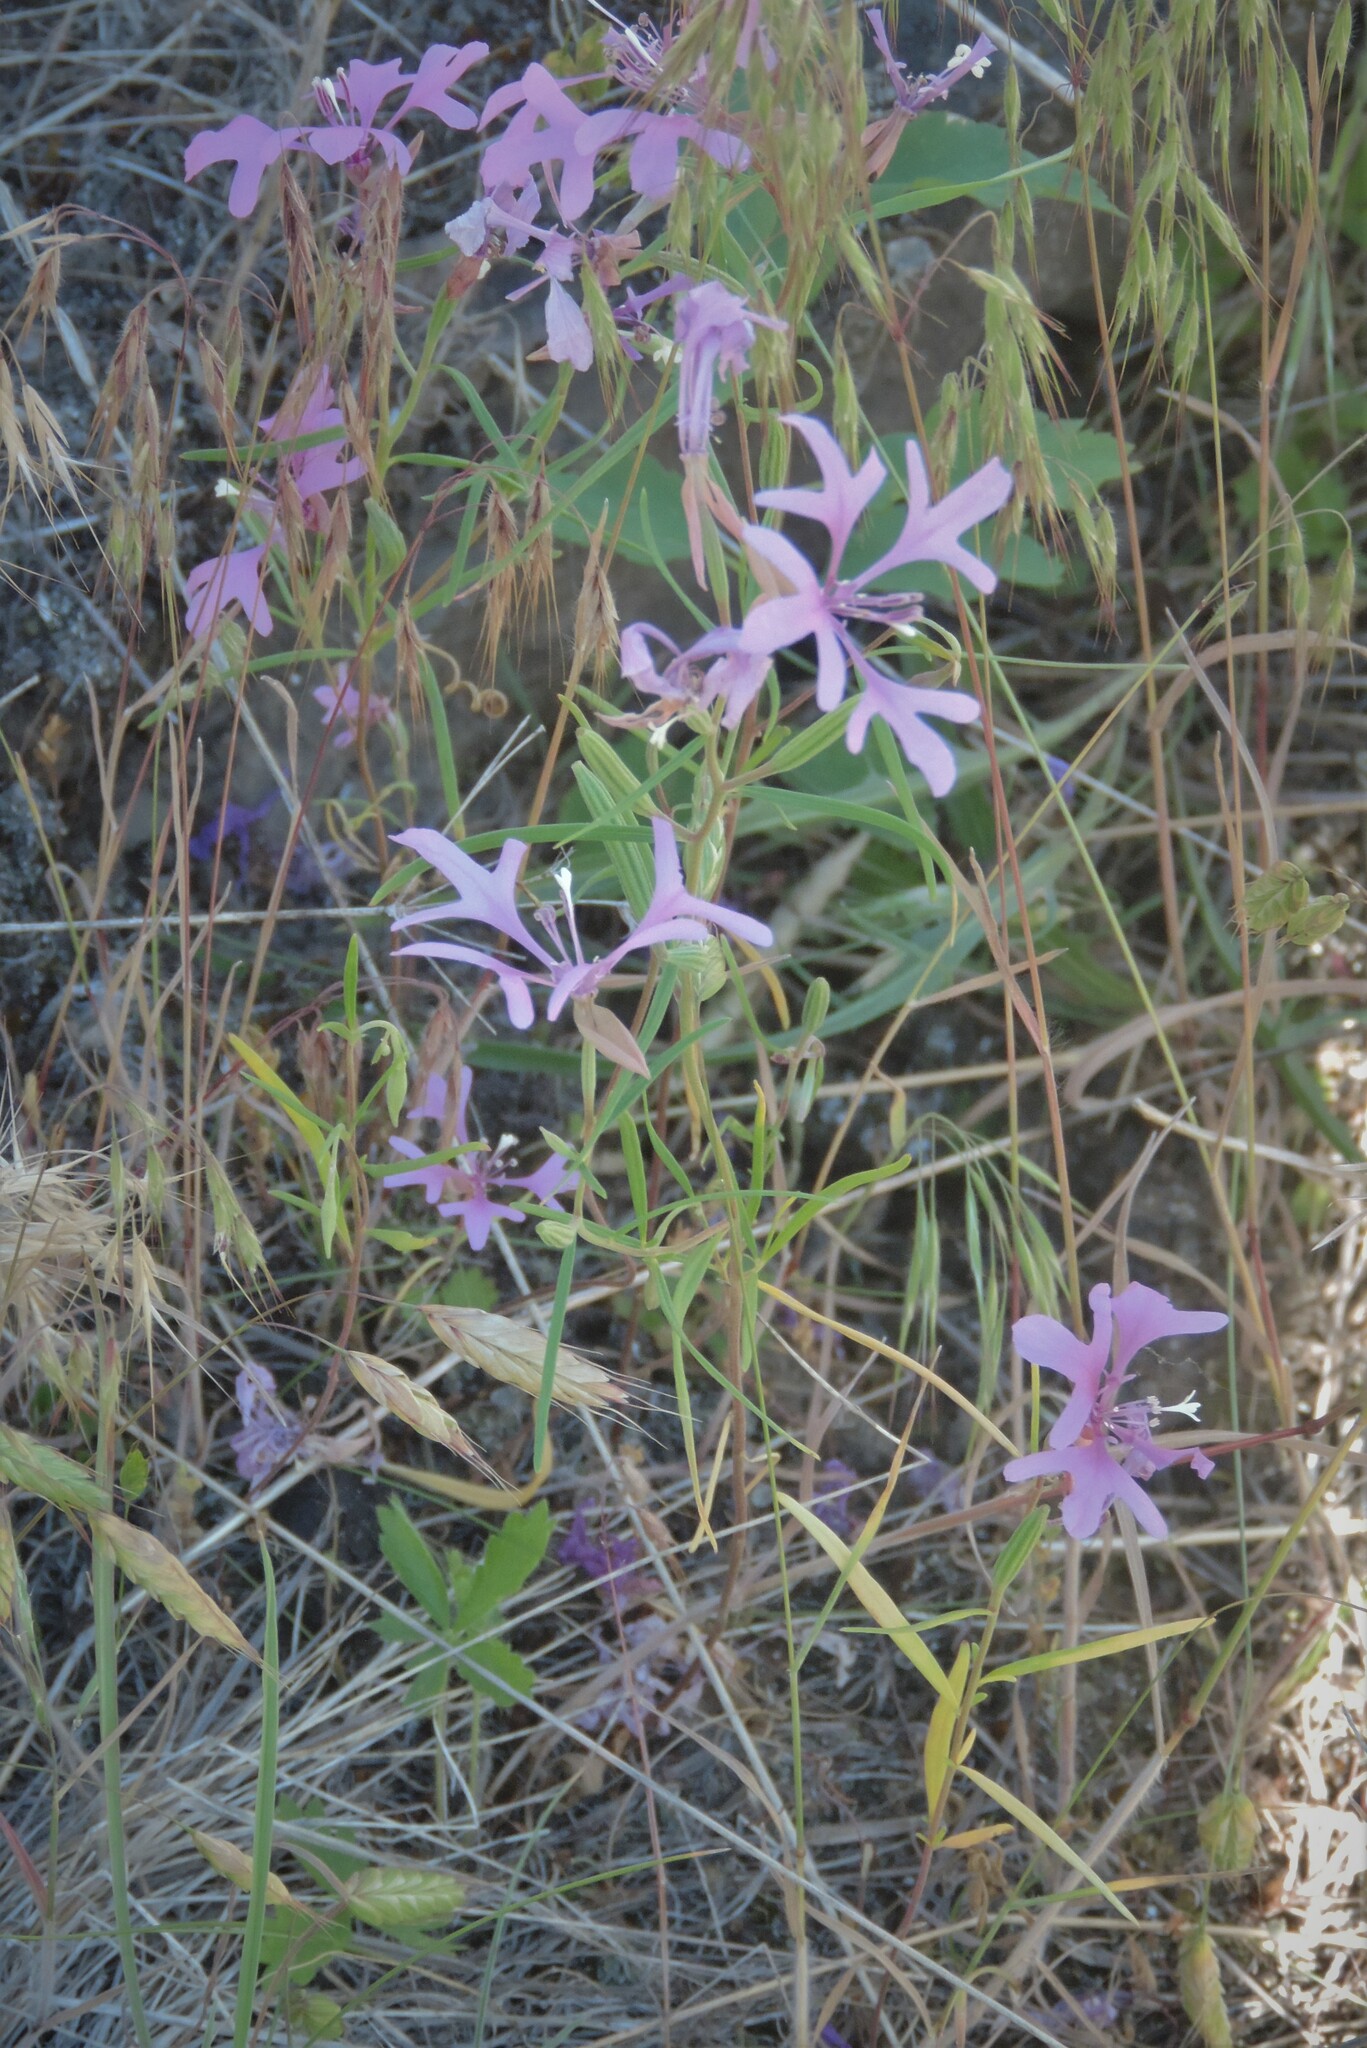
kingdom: Plantae
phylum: Tracheophyta
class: Magnoliopsida
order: Myrtales
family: Onagraceae
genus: Clarkia
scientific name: Clarkia pulchella
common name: Deer horn
